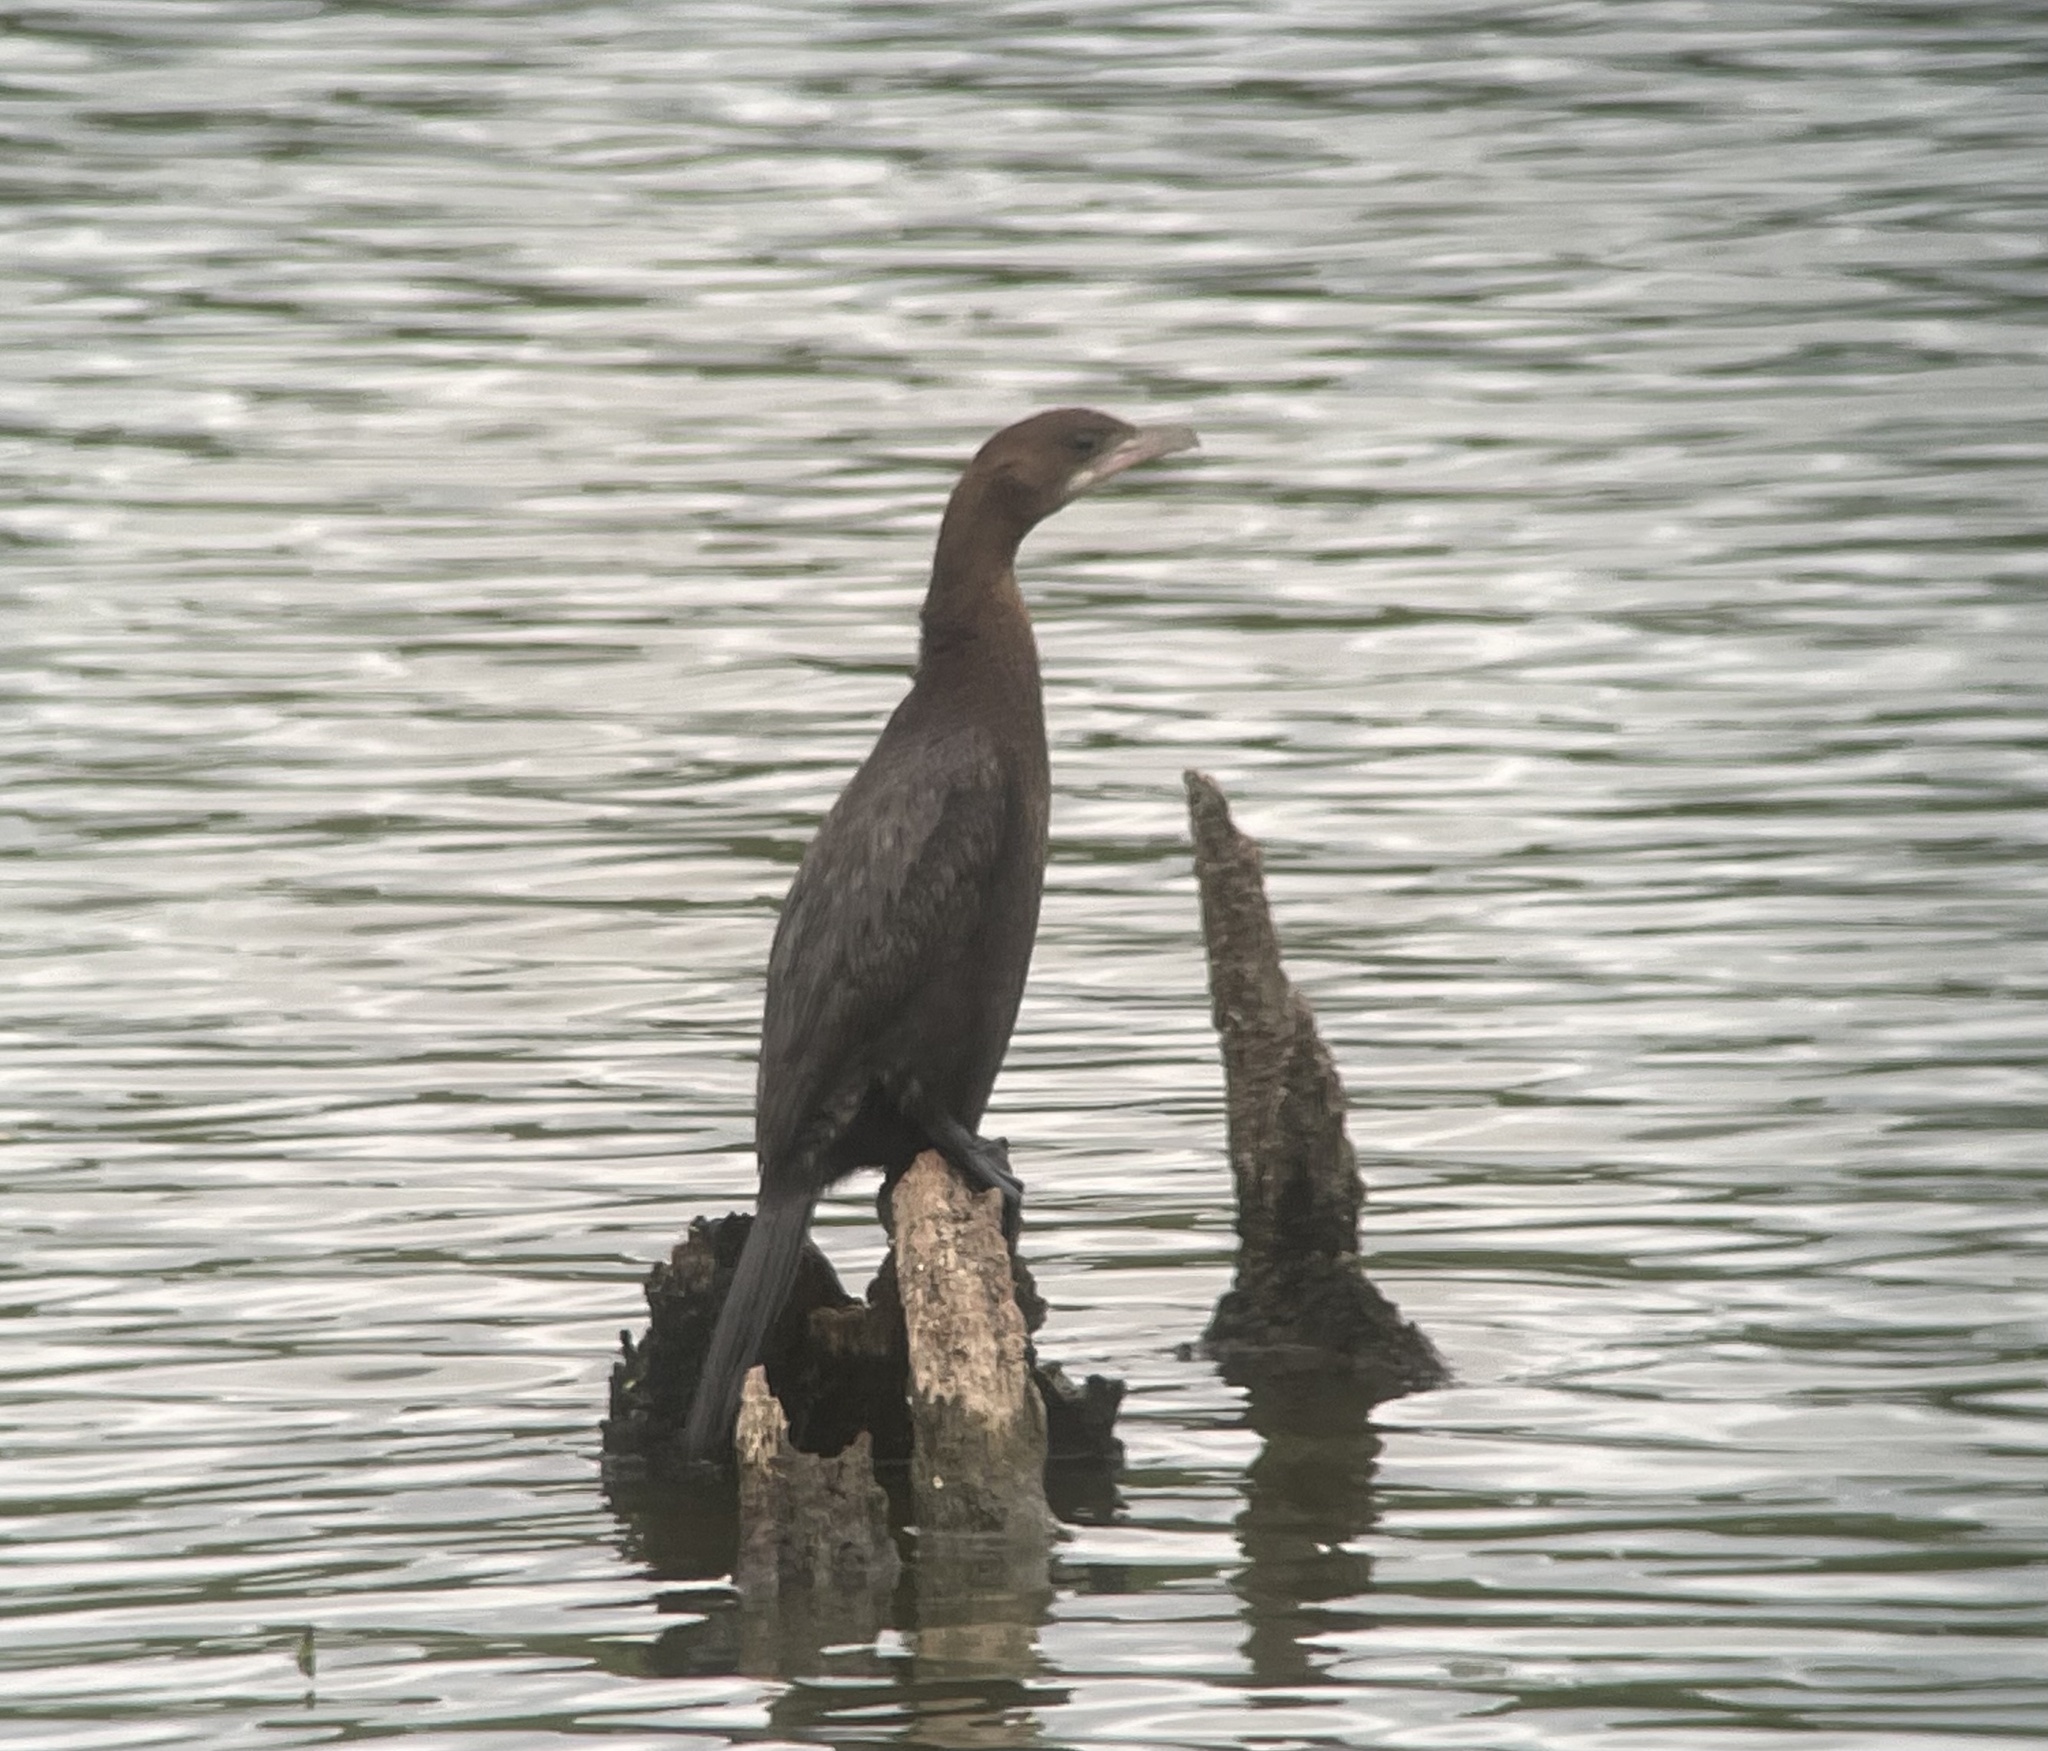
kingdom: Animalia
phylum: Chordata
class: Aves
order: Suliformes
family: Phalacrocoracidae
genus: Microcarbo
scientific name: Microcarbo pygmaeus
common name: Pygmy cormorant
